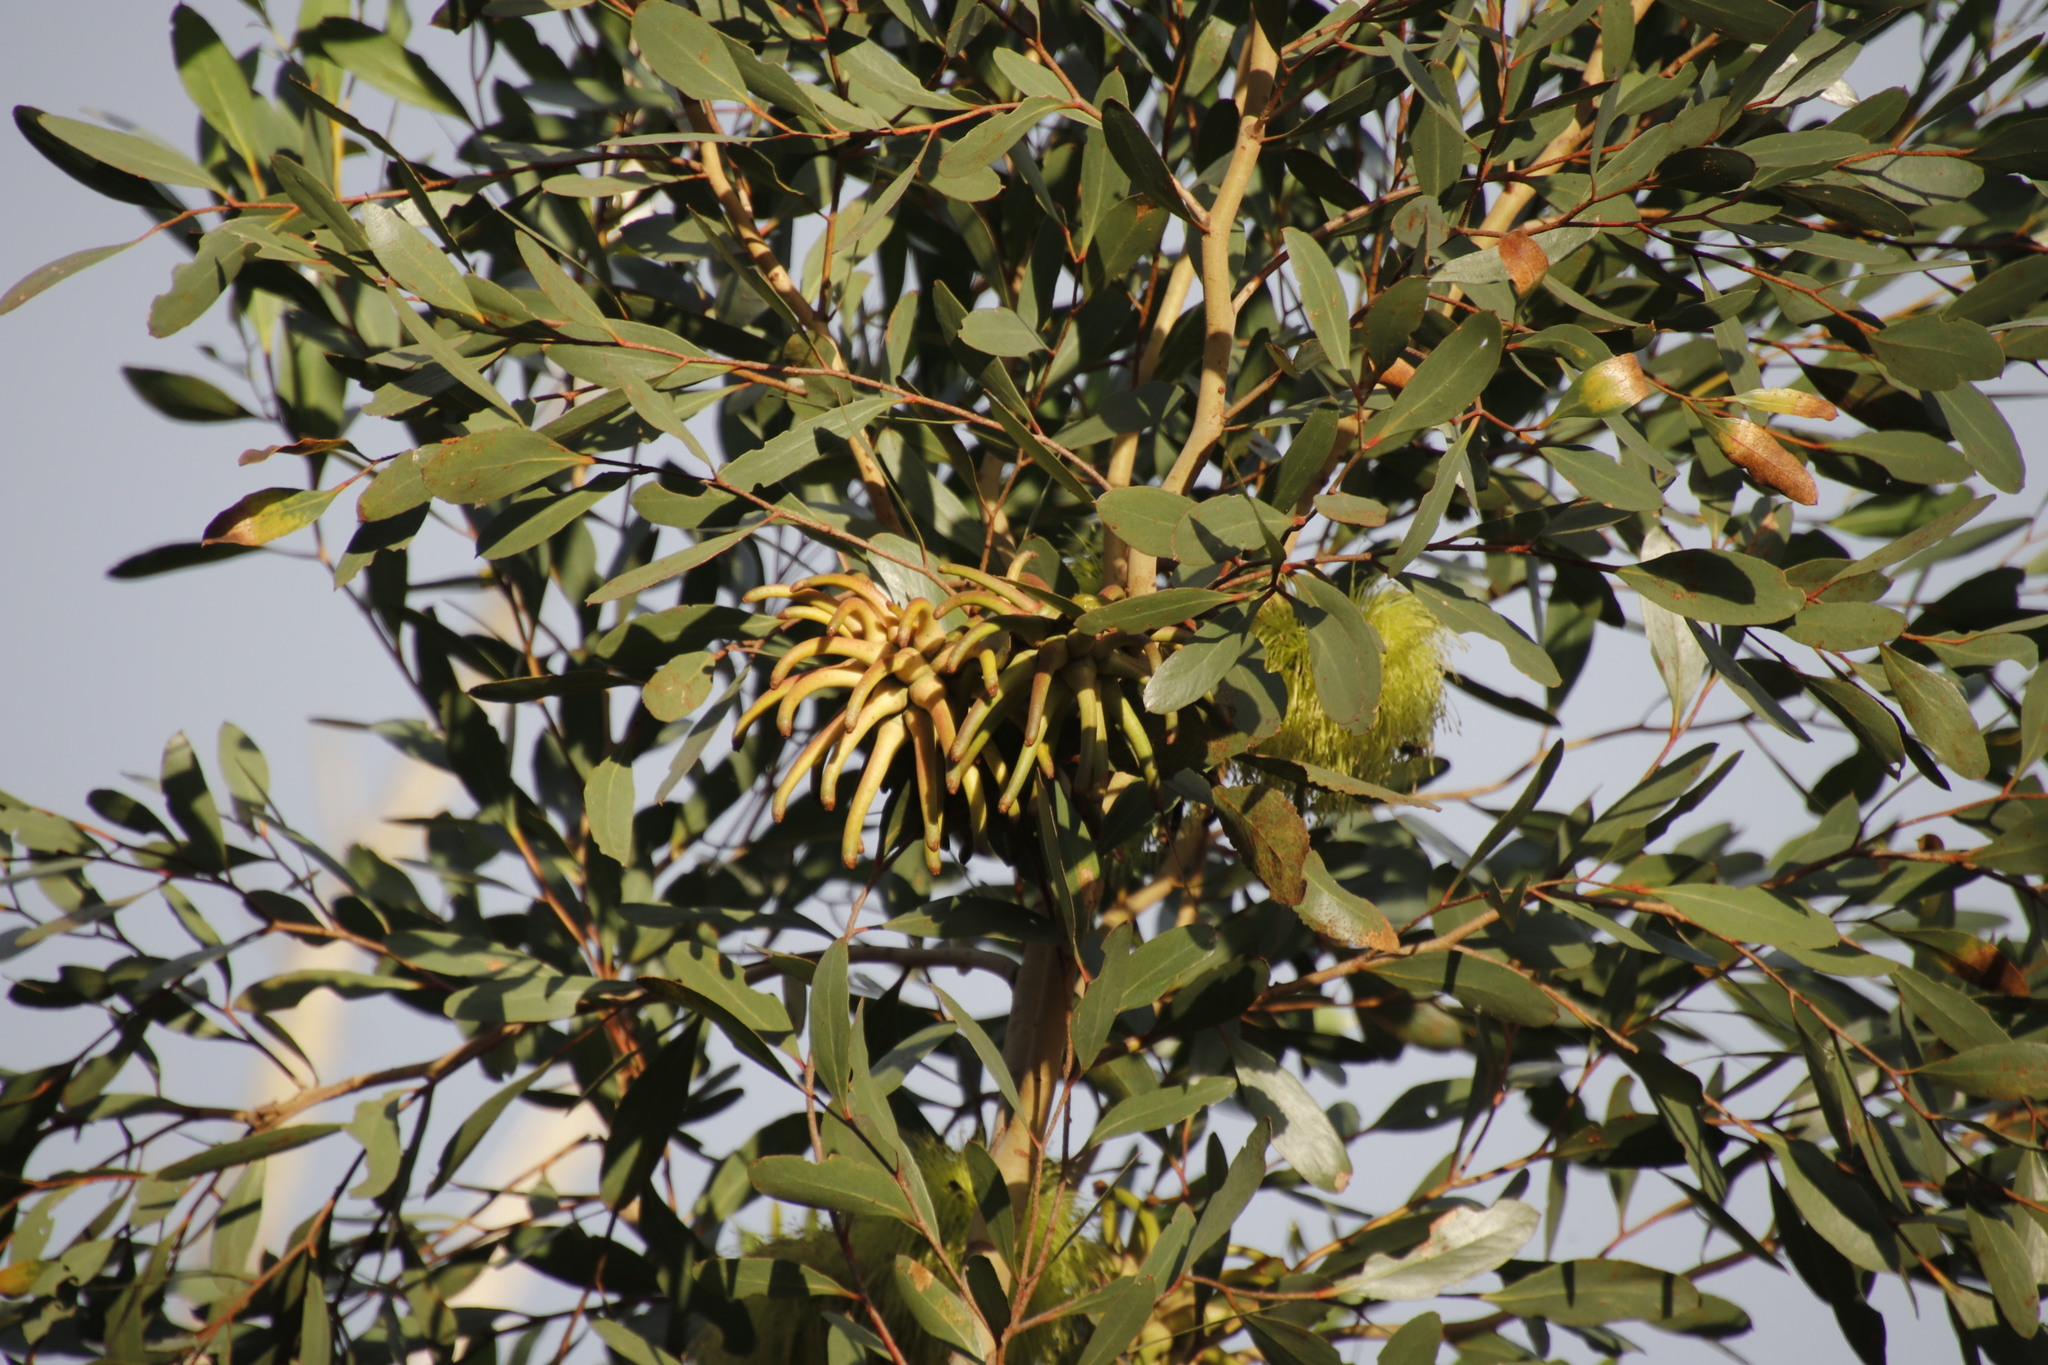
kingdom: Plantae
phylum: Tracheophyta
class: Magnoliopsida
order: Myrtales
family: Myrtaceae
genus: Eucalyptus
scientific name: Eucalyptus conferruminata
